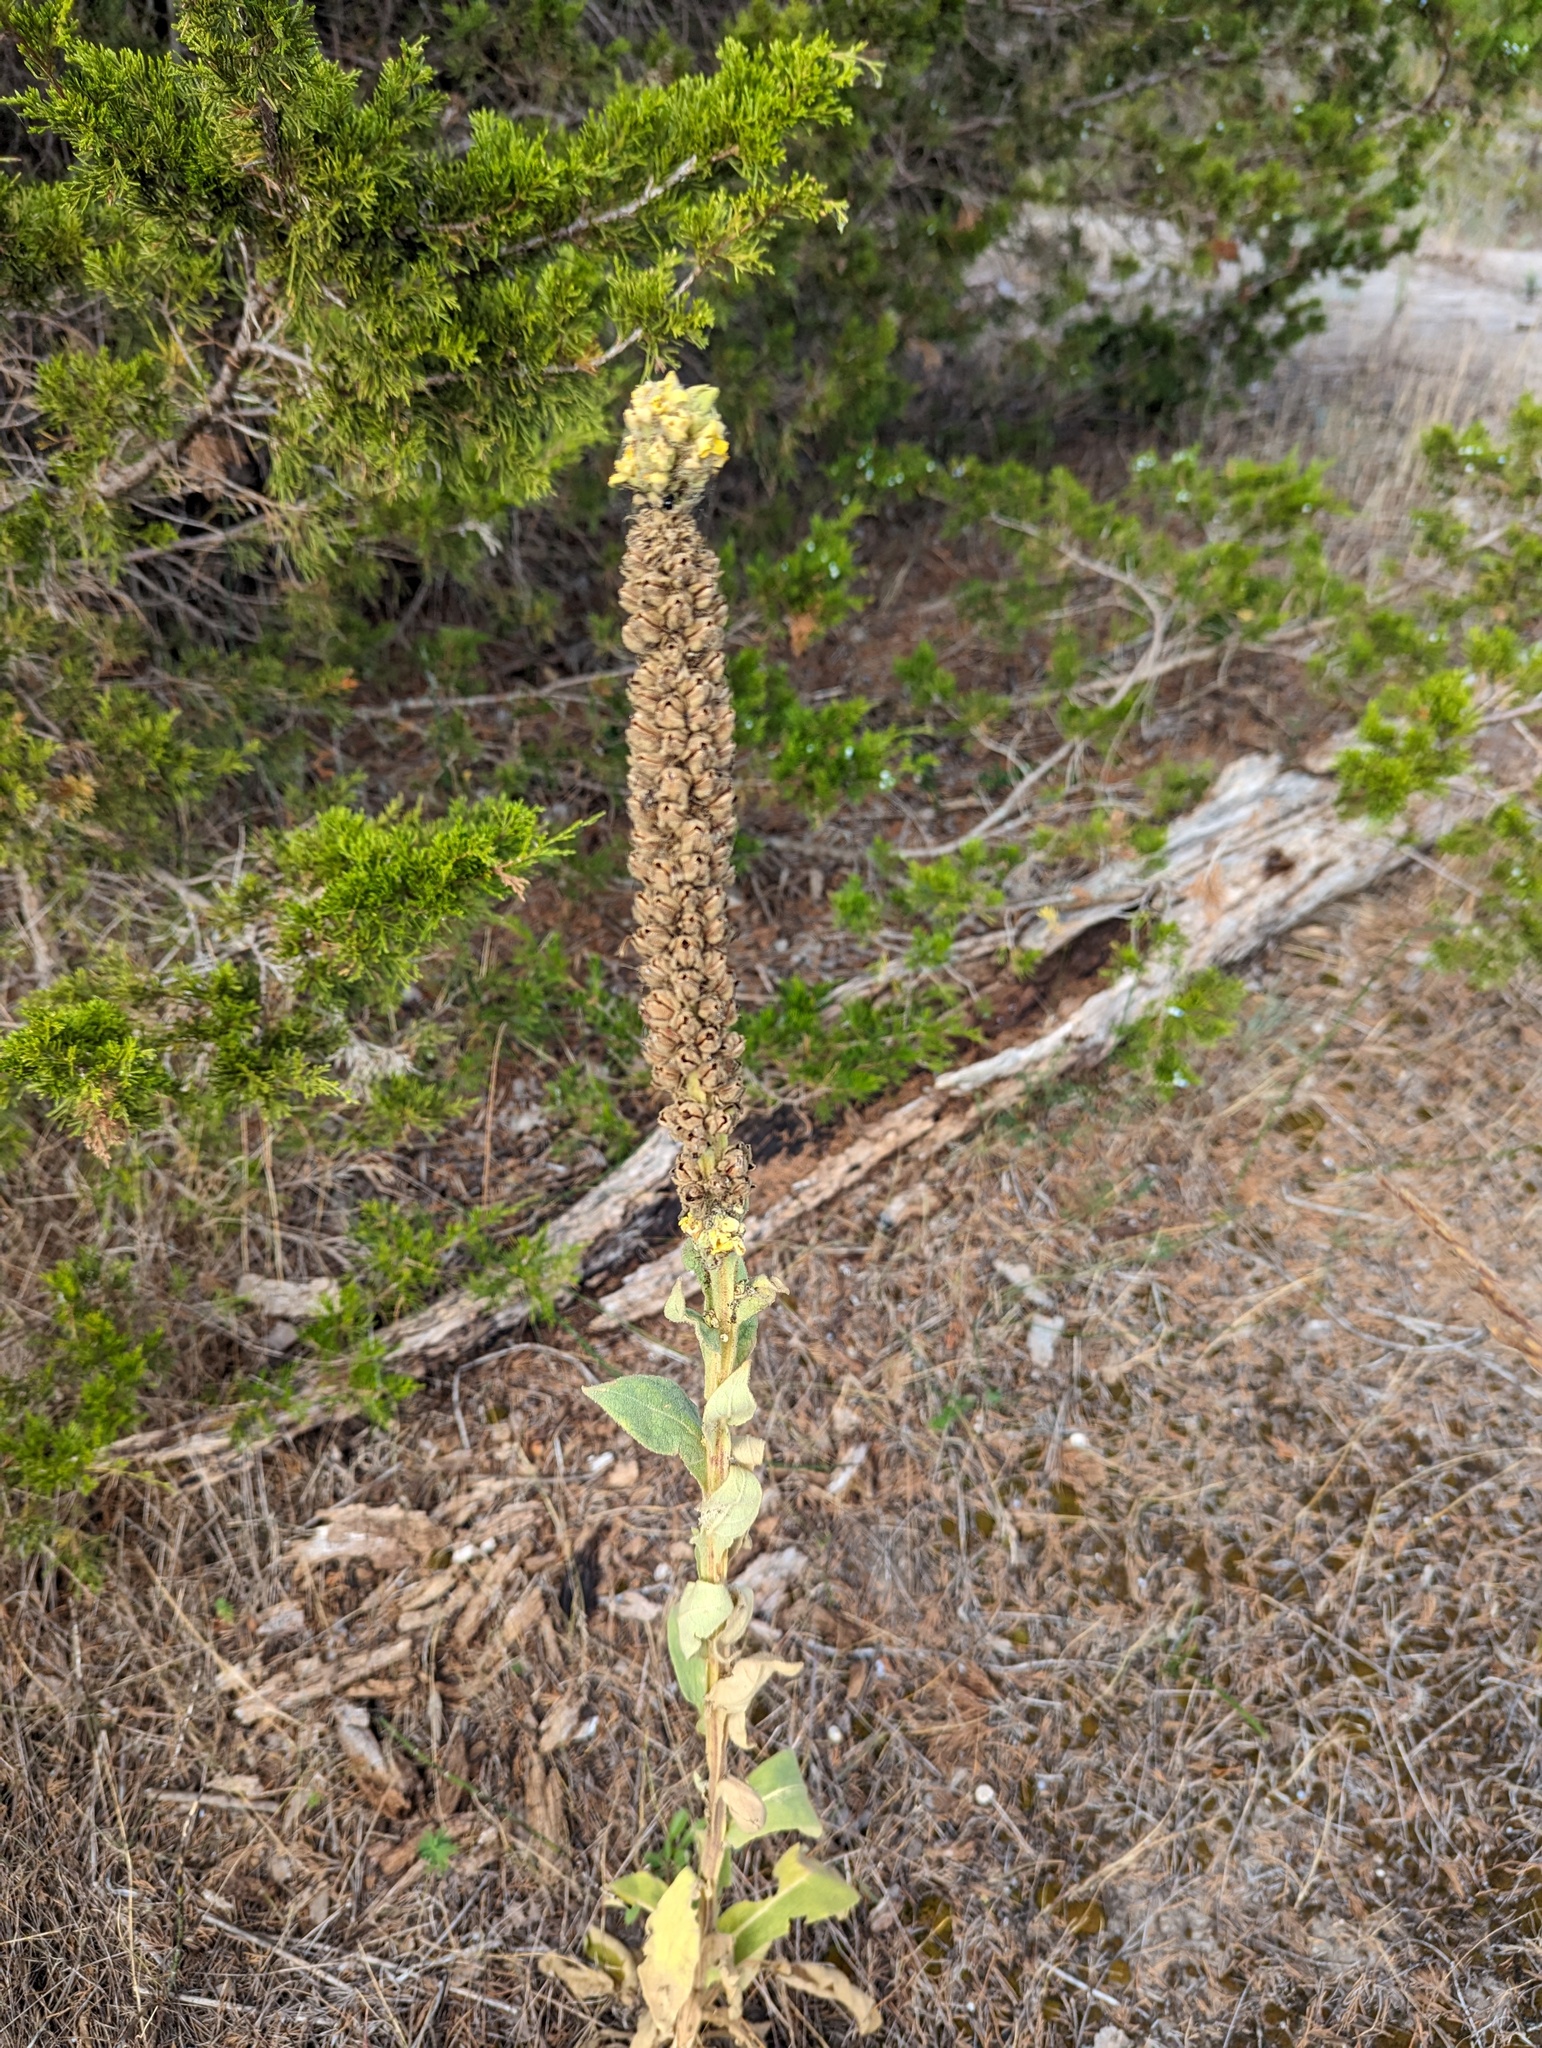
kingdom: Plantae
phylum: Tracheophyta
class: Magnoliopsida
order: Lamiales
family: Scrophulariaceae
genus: Verbascum
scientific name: Verbascum thapsus
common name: Common mullein
